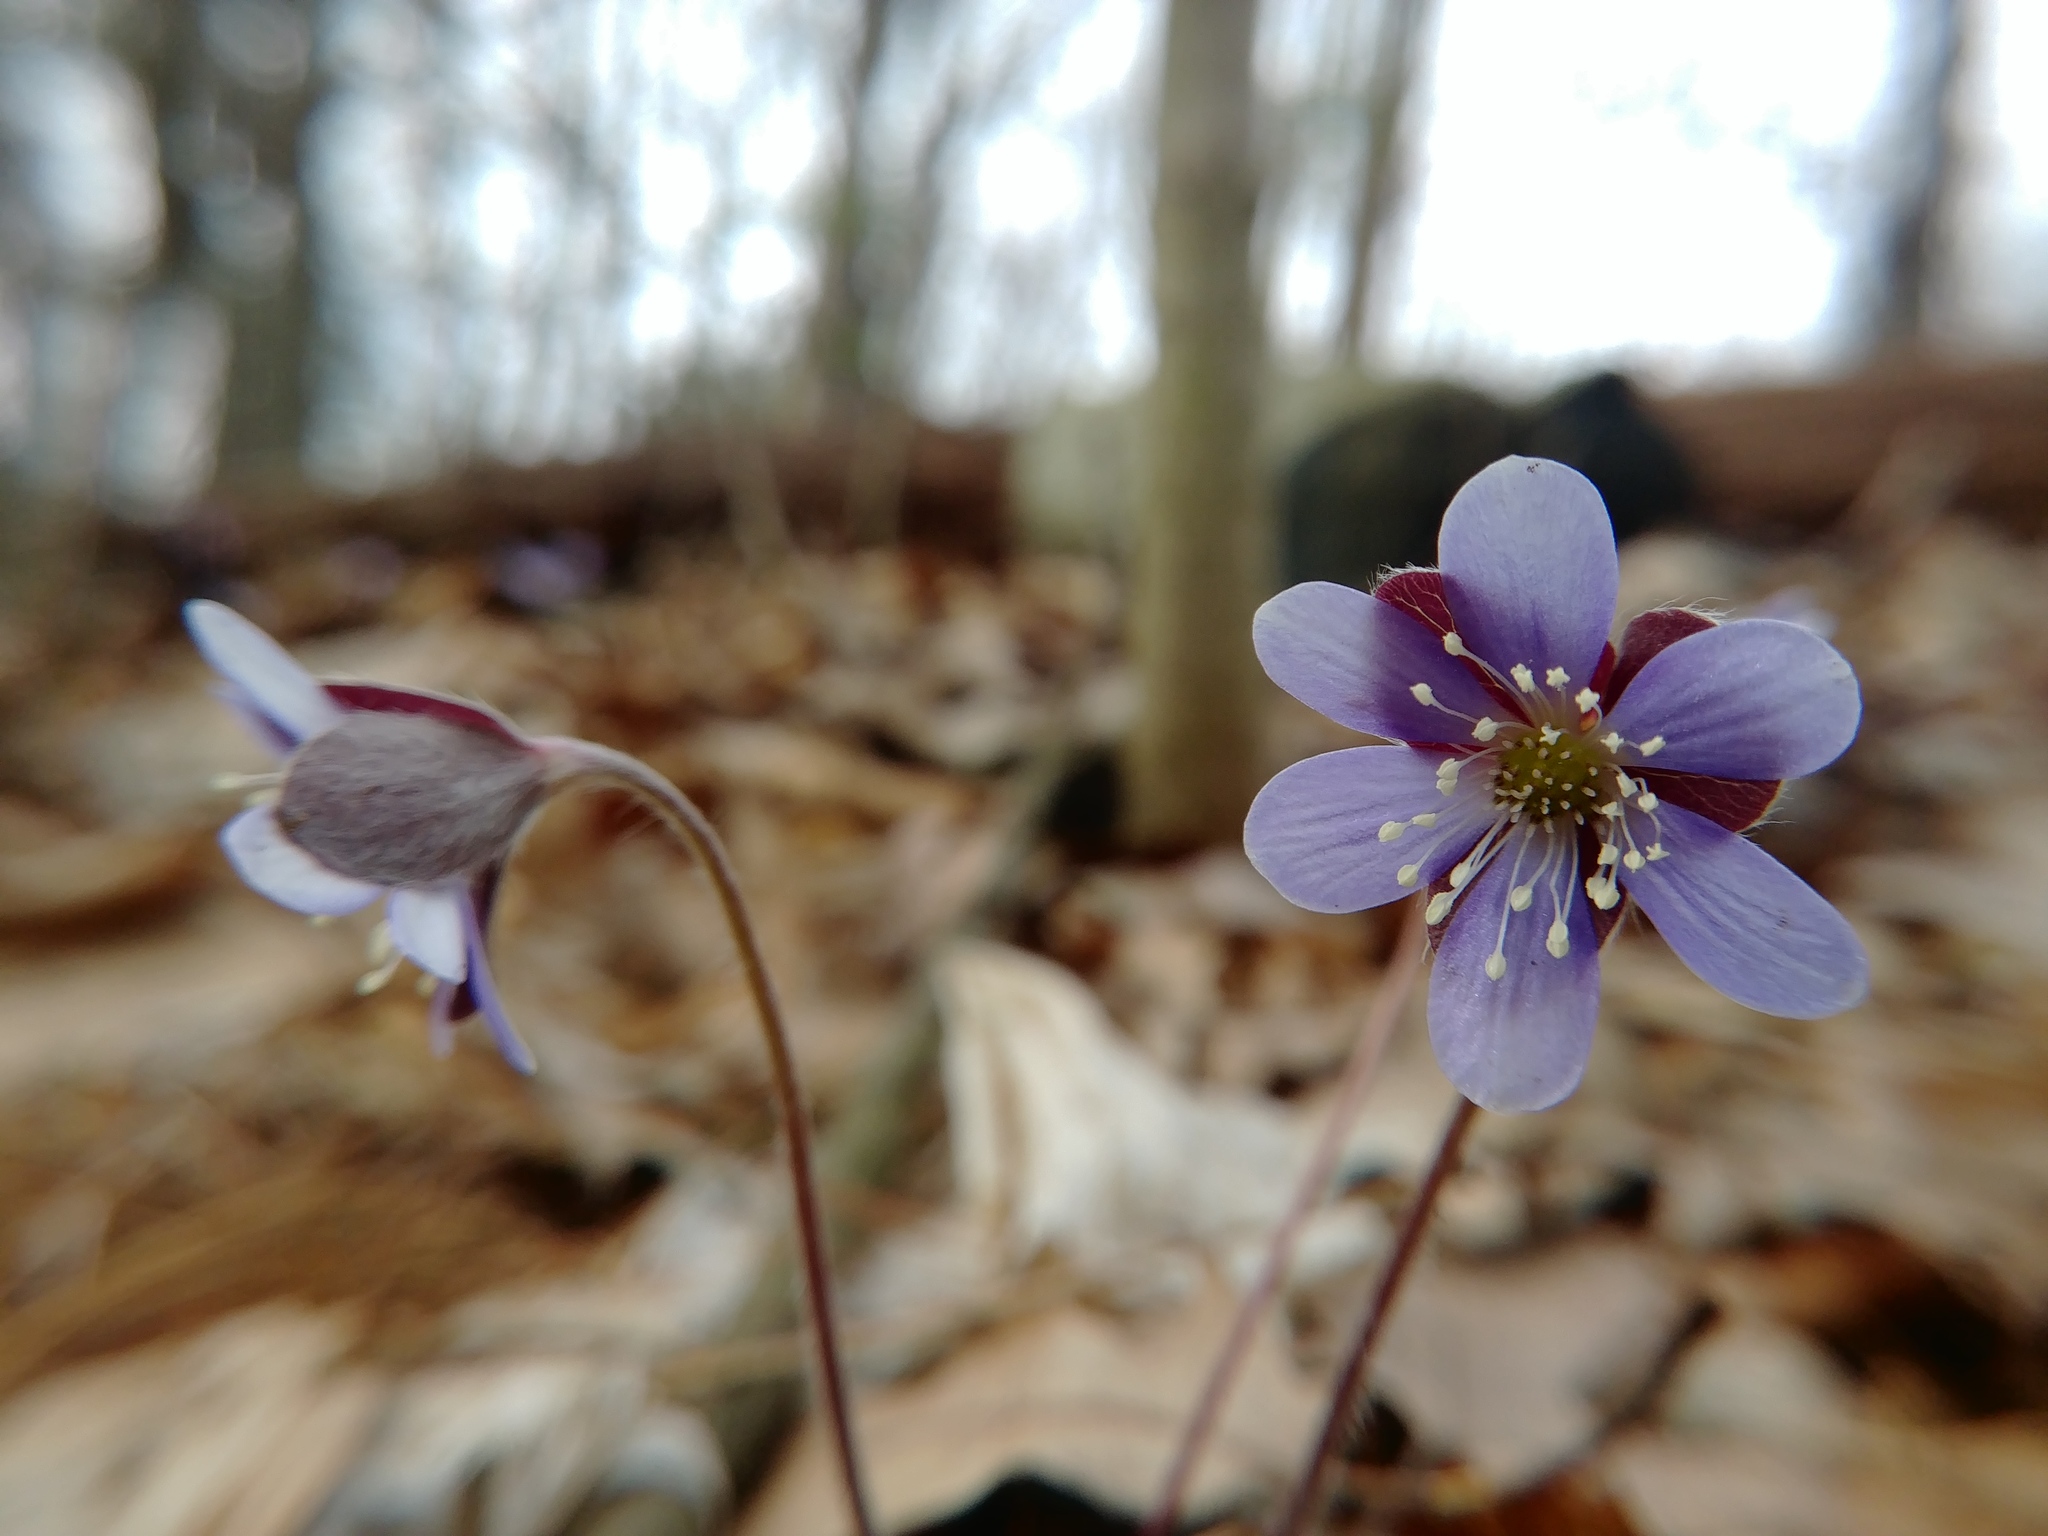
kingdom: Plantae
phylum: Tracheophyta
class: Magnoliopsida
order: Ranunculales
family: Ranunculaceae
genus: Hepatica
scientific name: Hepatica americana
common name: American hepatica
